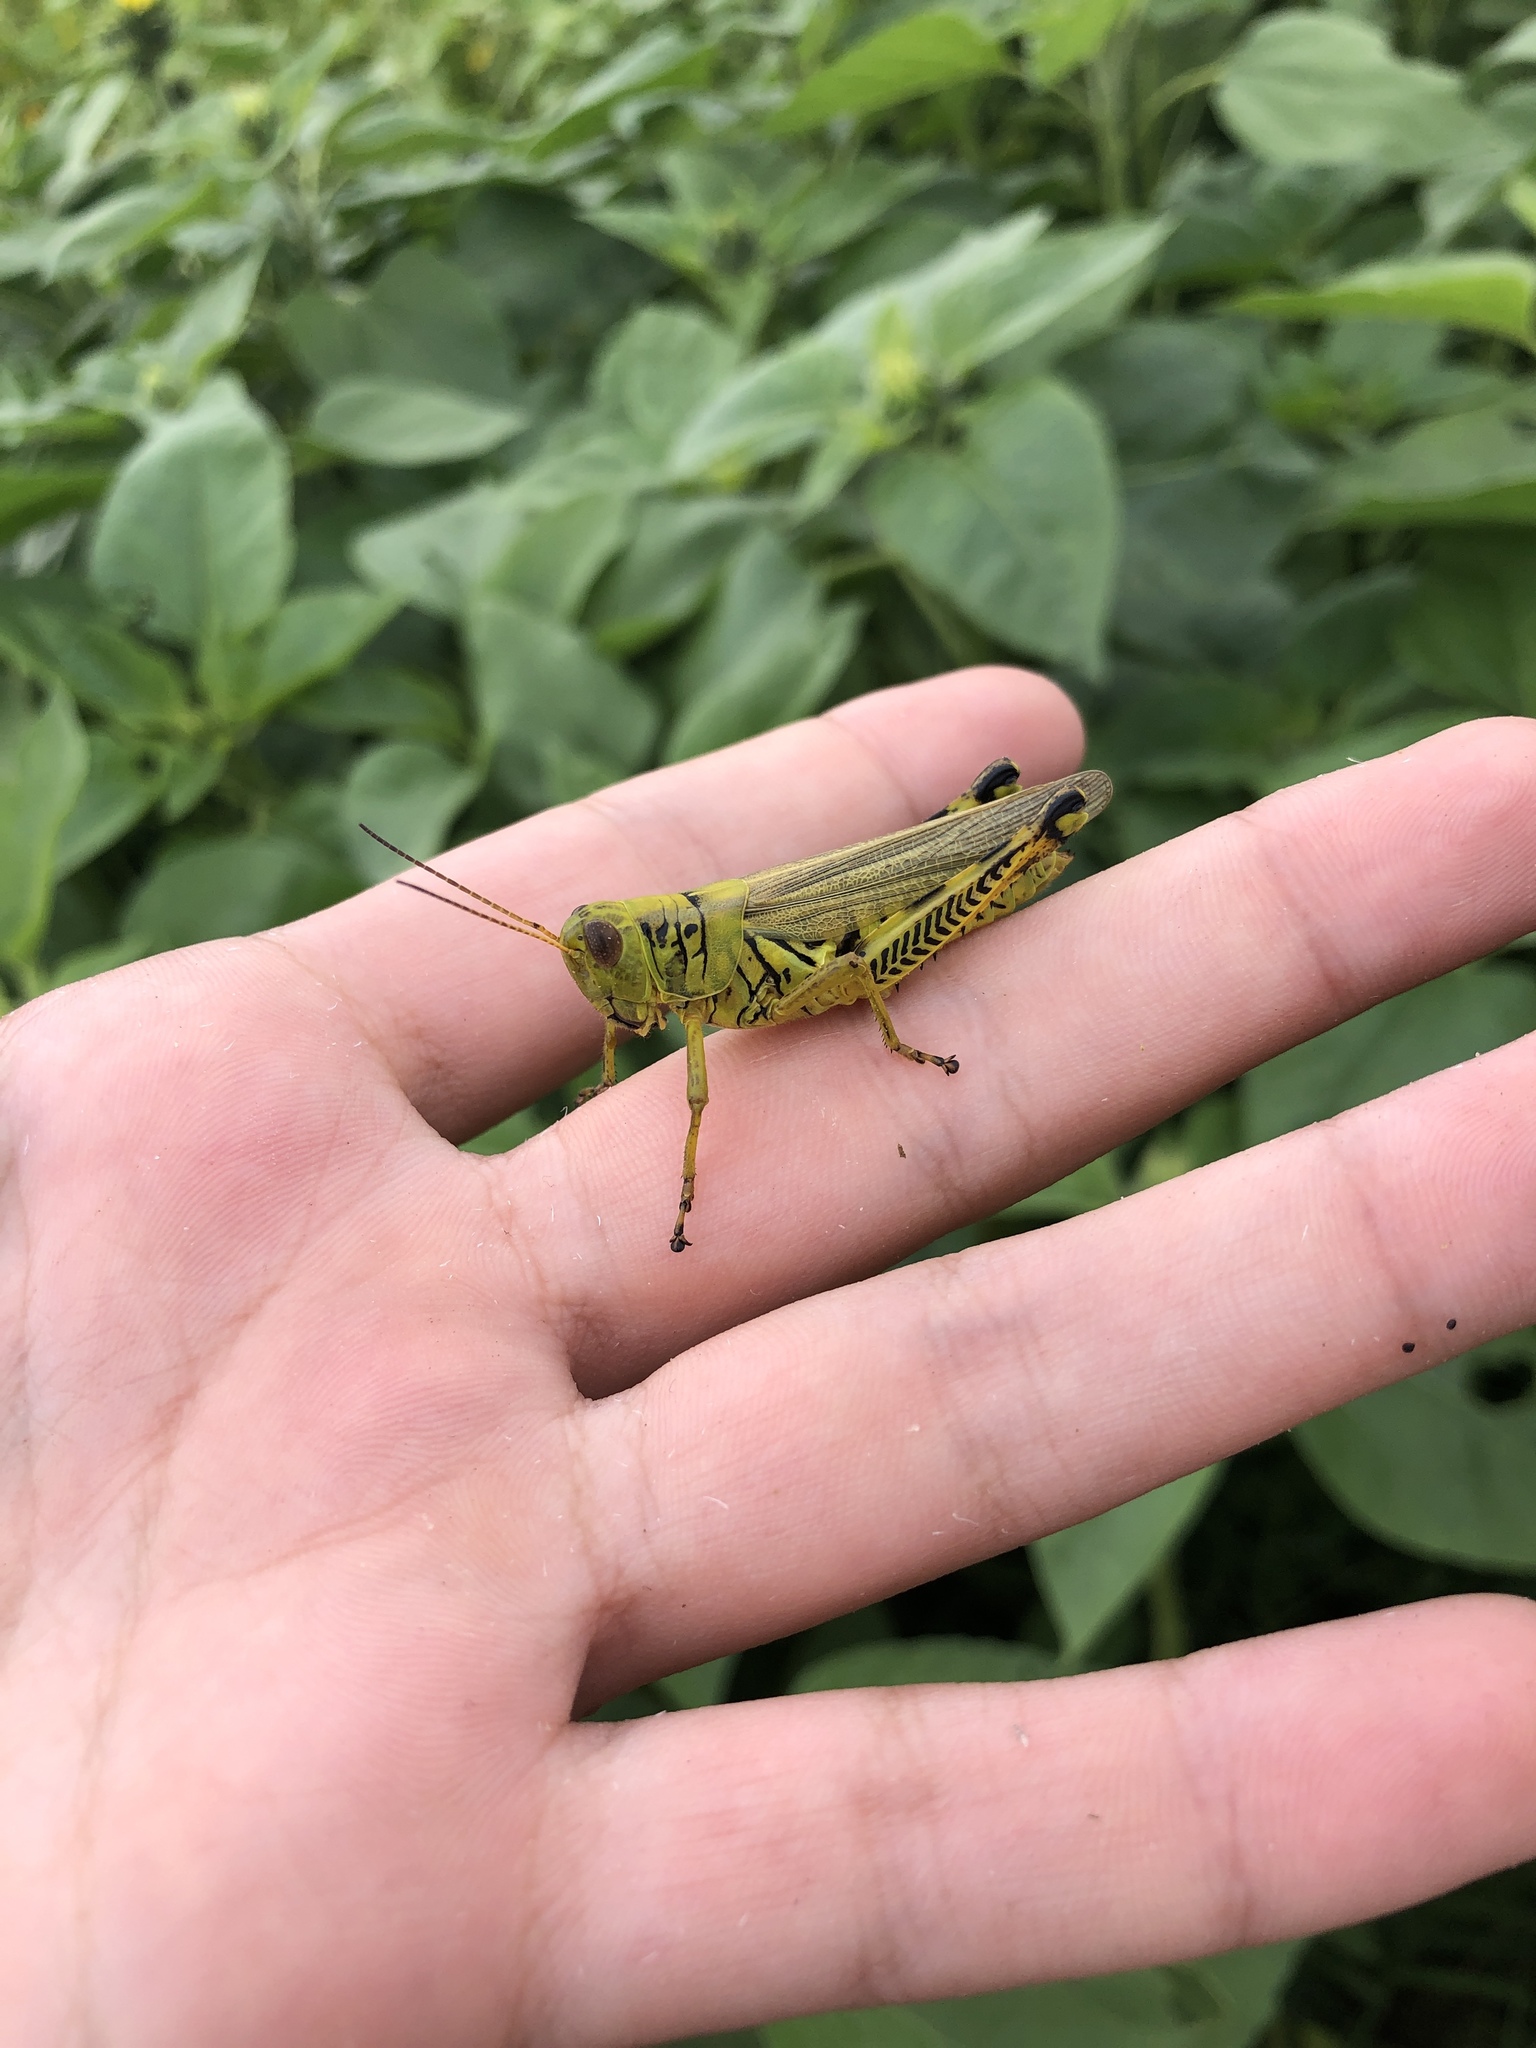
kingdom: Animalia
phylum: Arthropoda
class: Insecta
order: Orthoptera
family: Acrididae
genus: Melanoplus
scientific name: Melanoplus differentialis
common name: Differential grasshopper
